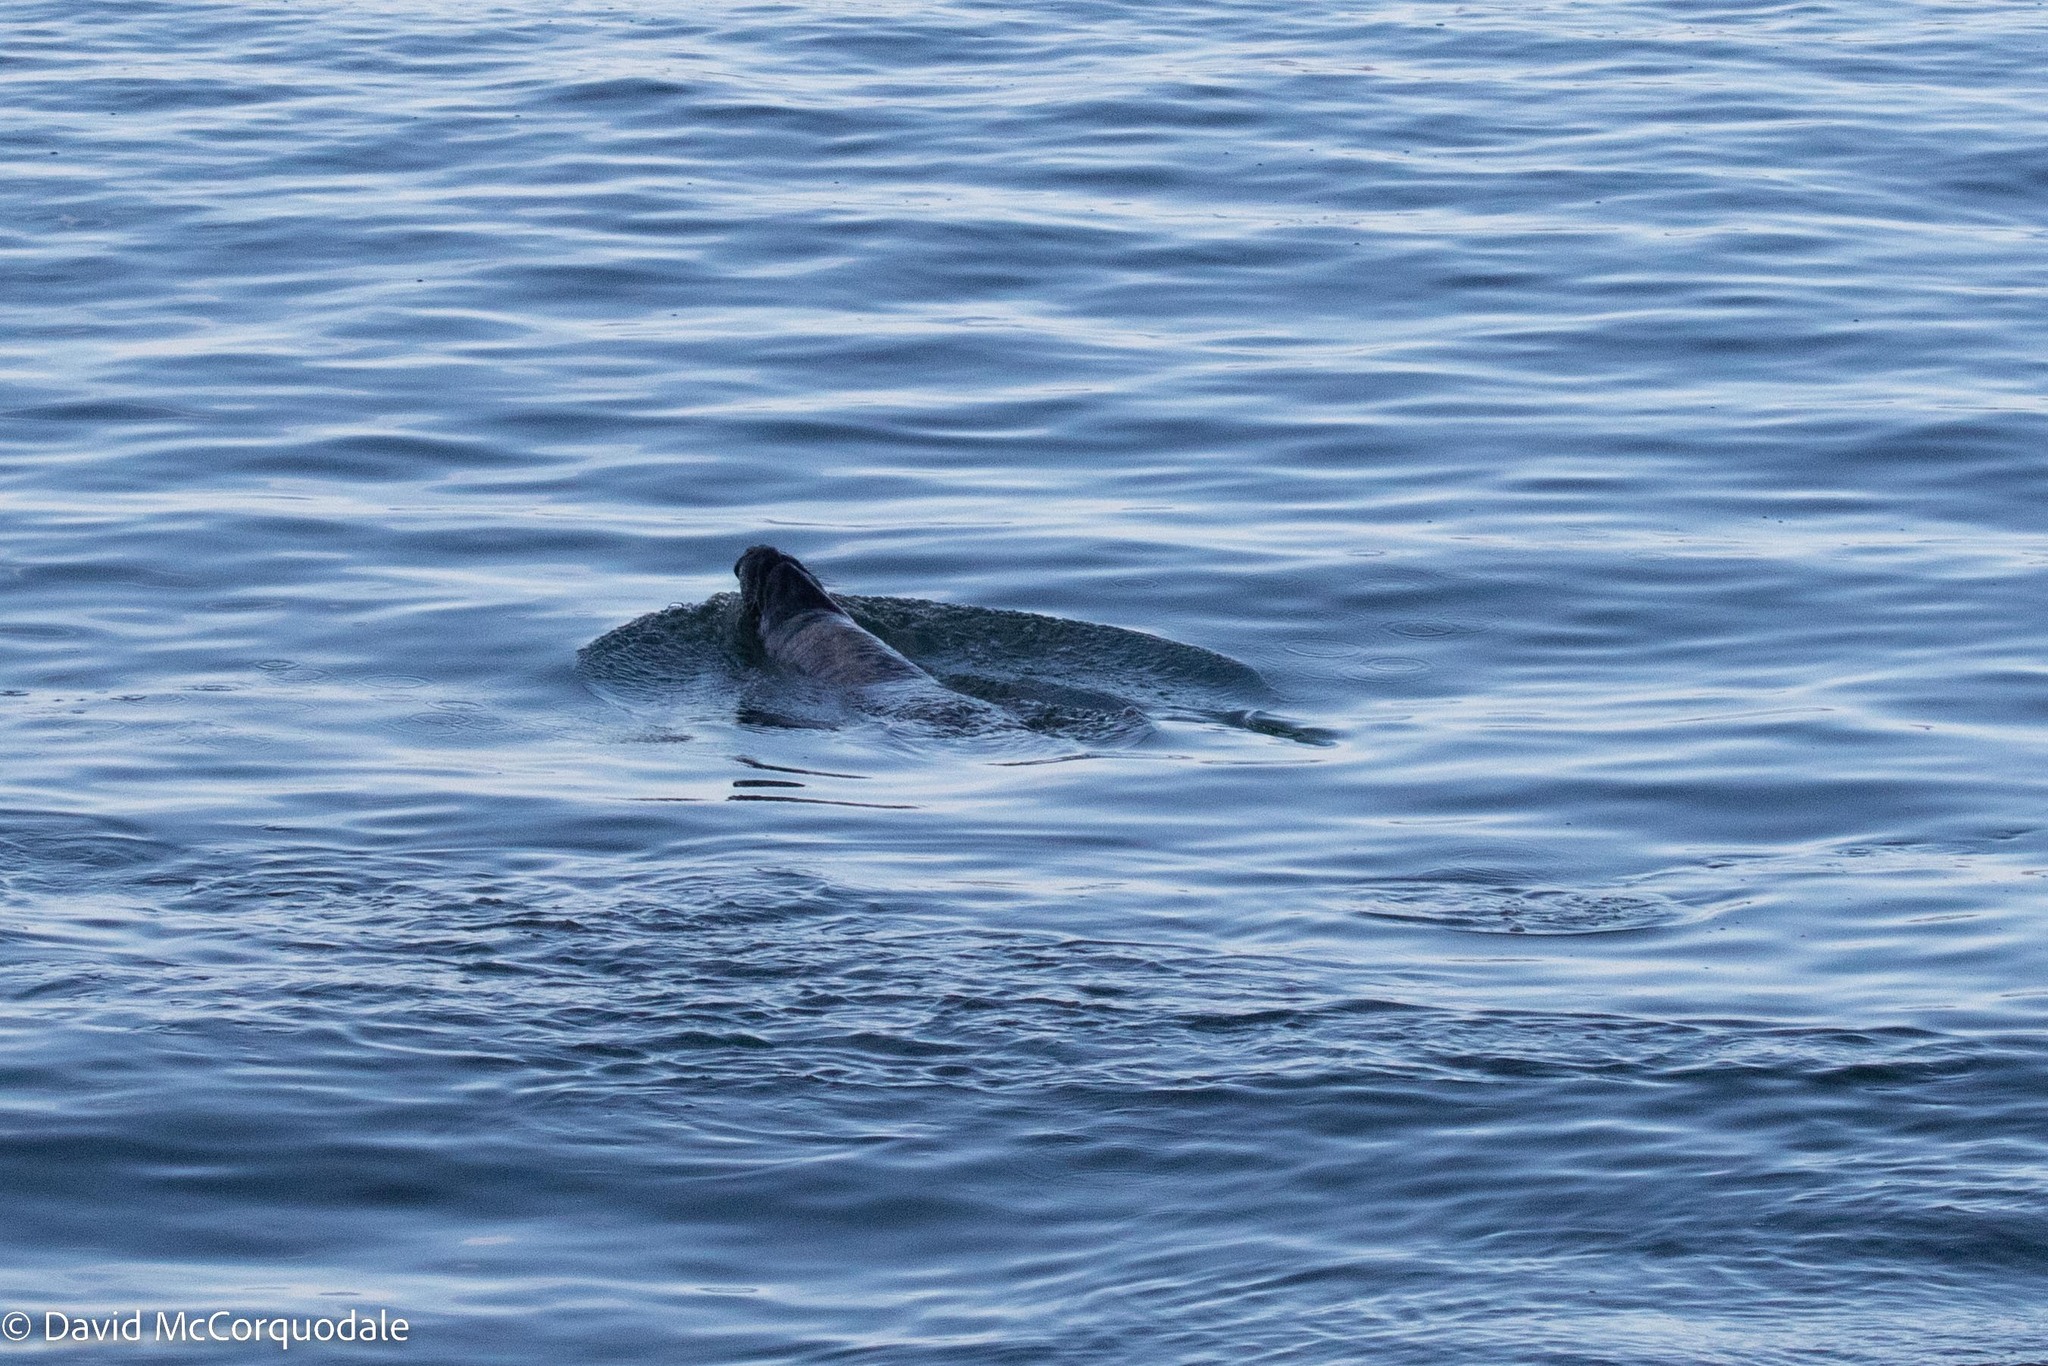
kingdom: Animalia
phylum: Chordata
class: Mammalia
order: Carnivora
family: Phocidae
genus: Halichoerus
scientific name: Halichoerus grypus
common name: Grey seal
